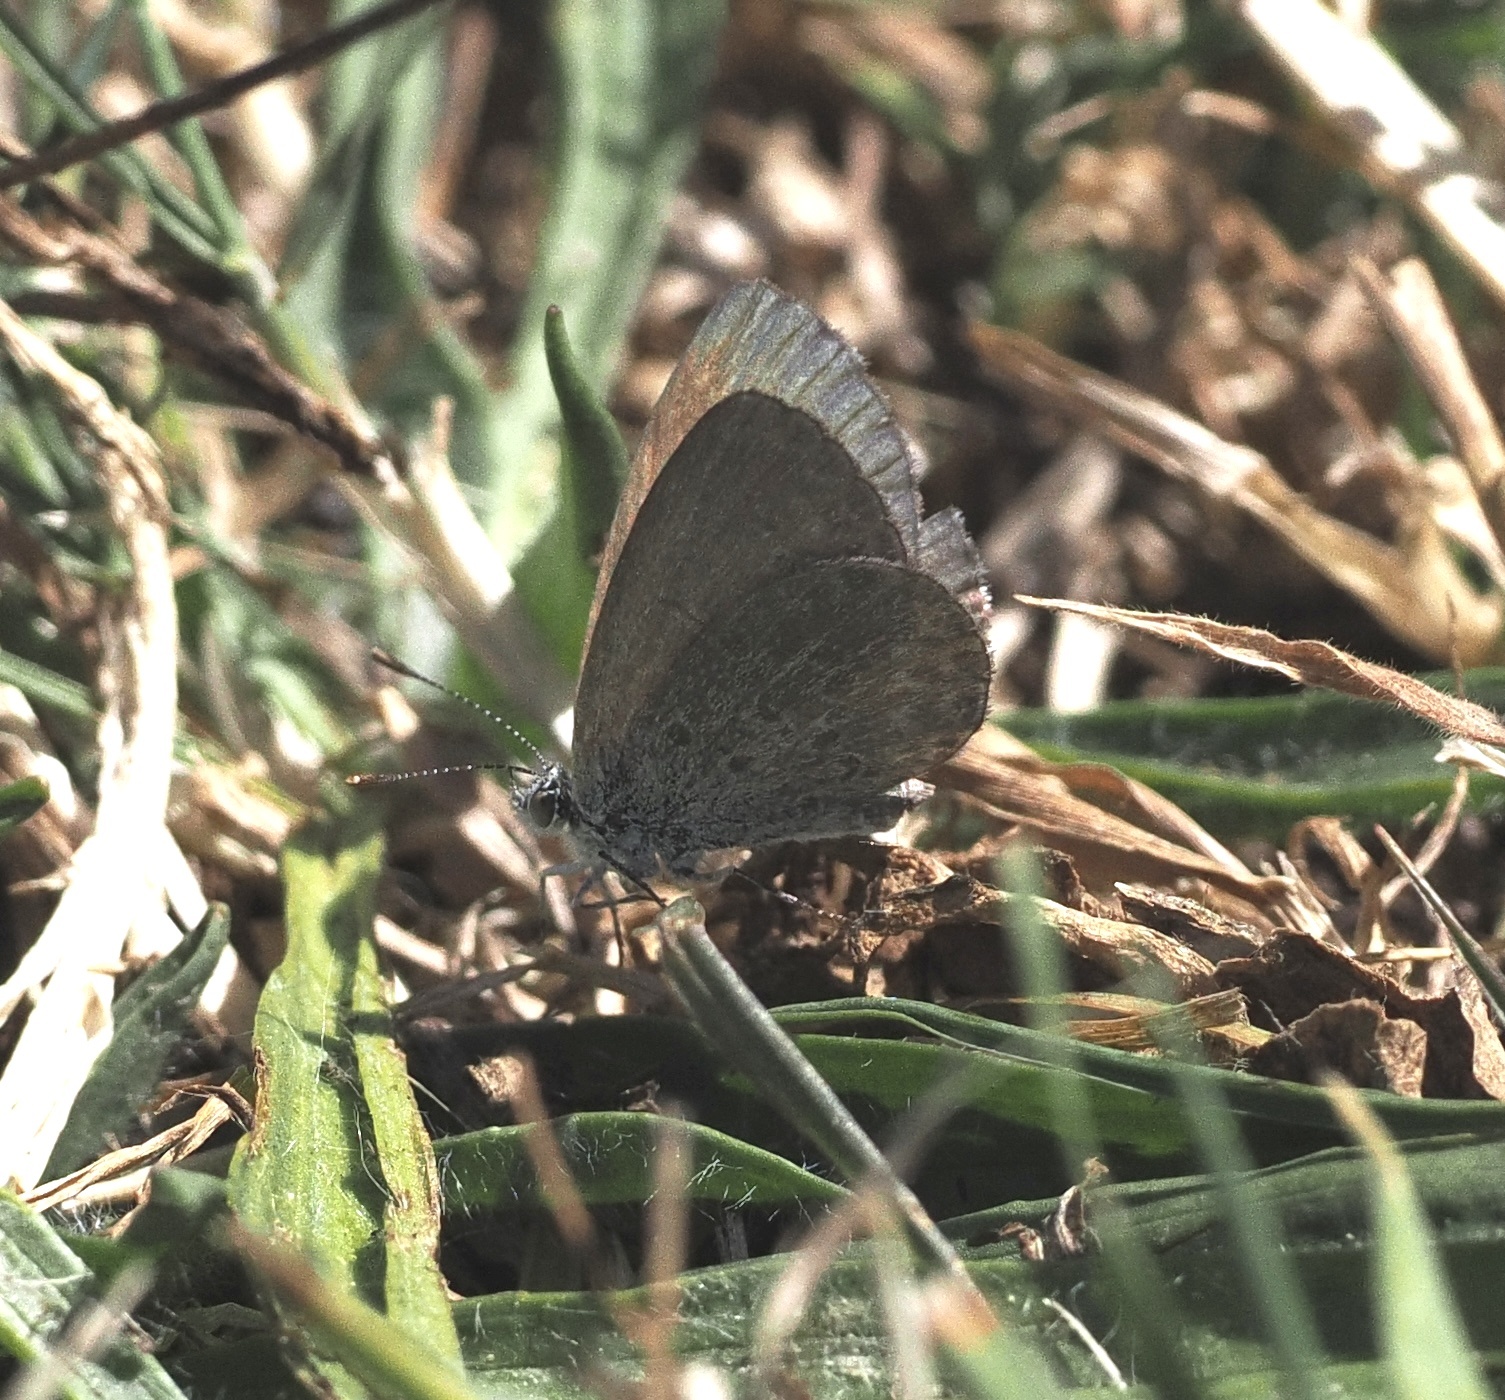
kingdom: Animalia
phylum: Arthropoda
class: Insecta
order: Lepidoptera
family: Lycaenidae
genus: Zizina
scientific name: Zizina labradus
